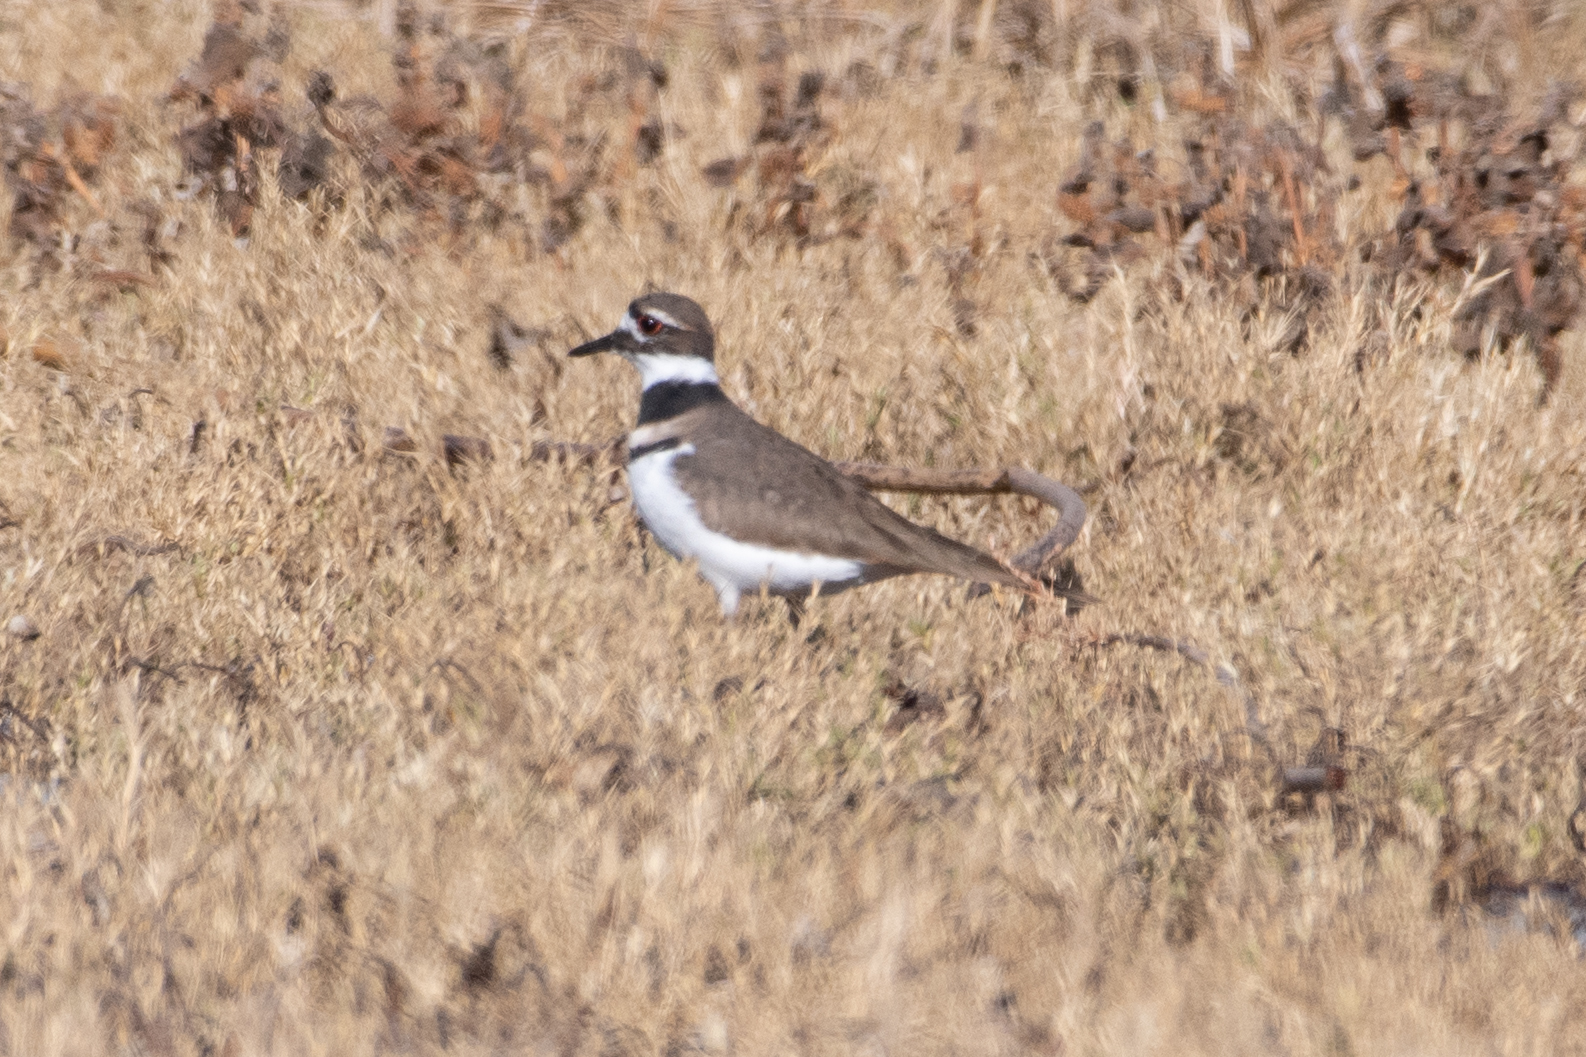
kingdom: Animalia
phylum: Chordata
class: Aves
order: Charadriiformes
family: Charadriidae
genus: Charadrius
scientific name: Charadrius vociferus
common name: Killdeer
